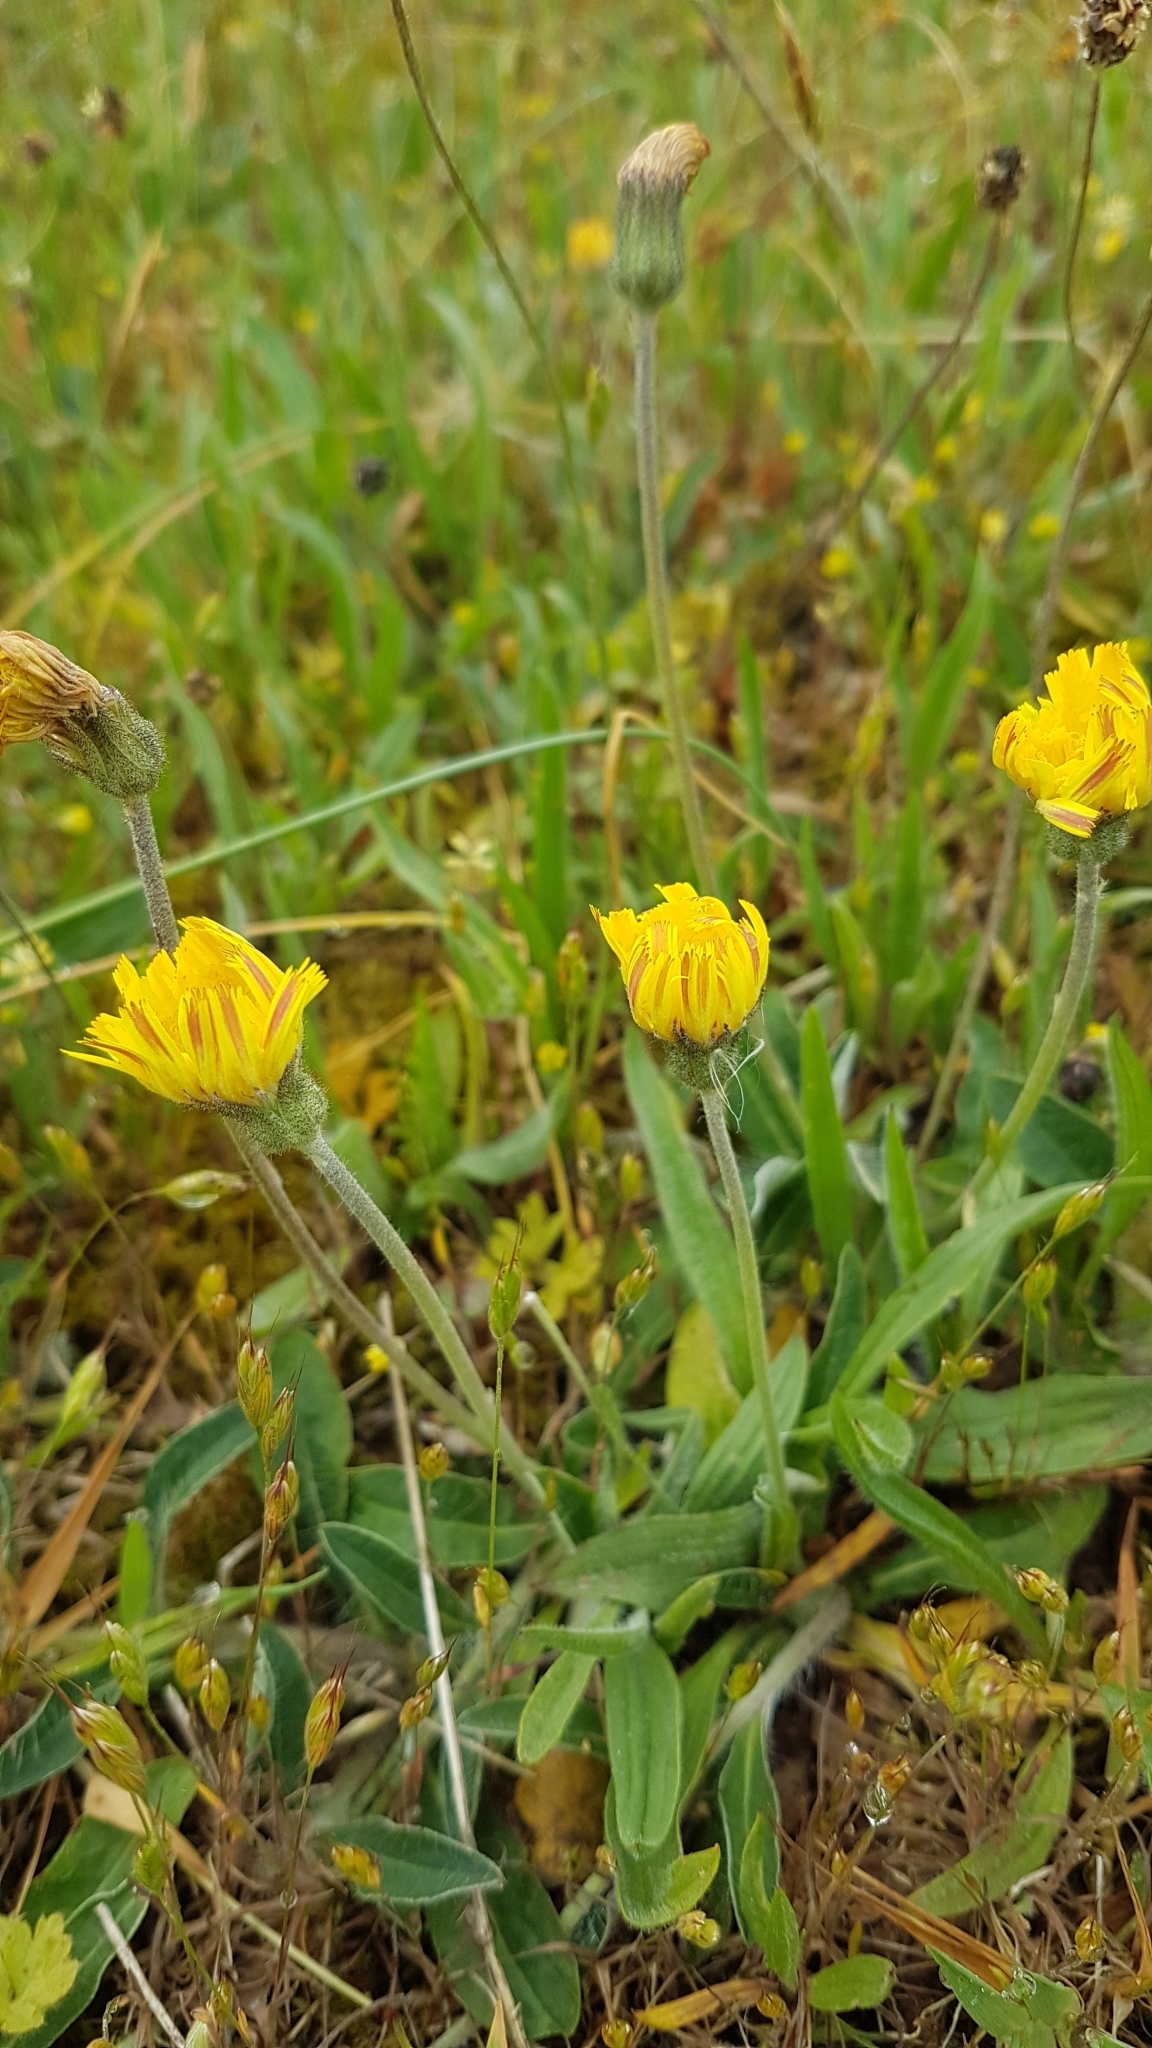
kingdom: Plantae
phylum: Tracheophyta
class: Magnoliopsida
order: Asterales
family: Asteraceae
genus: Pilosella
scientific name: Pilosella officinarum
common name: Mouse-ear hawkweed
